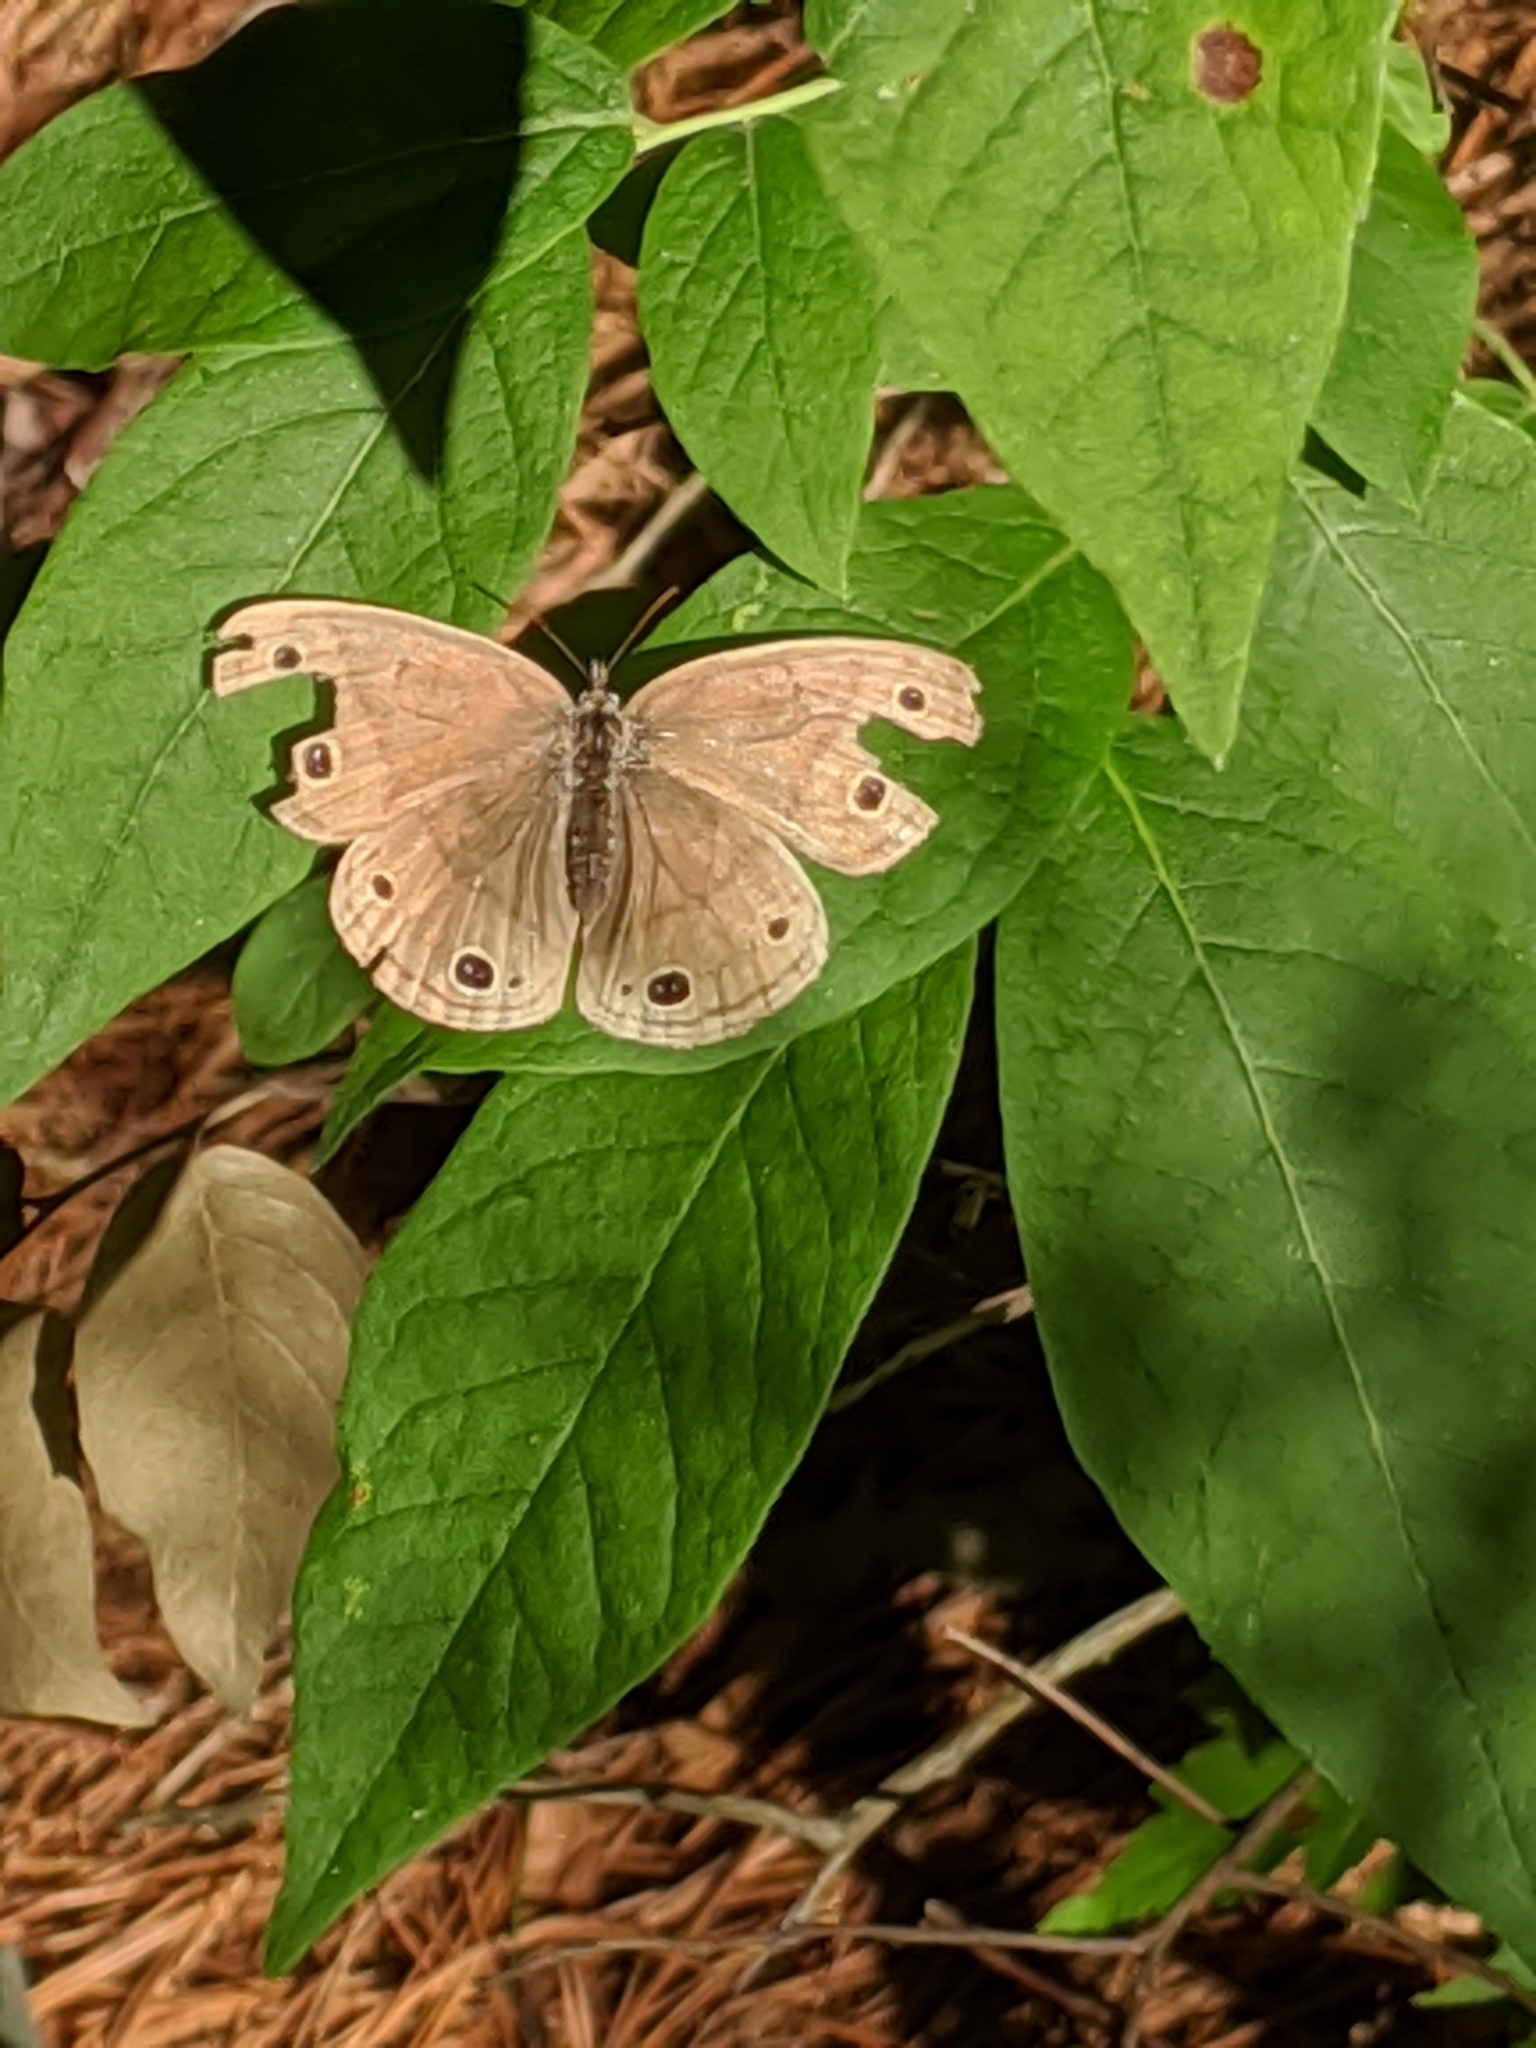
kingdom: Animalia
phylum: Arthropoda
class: Insecta
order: Lepidoptera
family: Nymphalidae
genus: Euptychia
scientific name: Euptychia cymela
